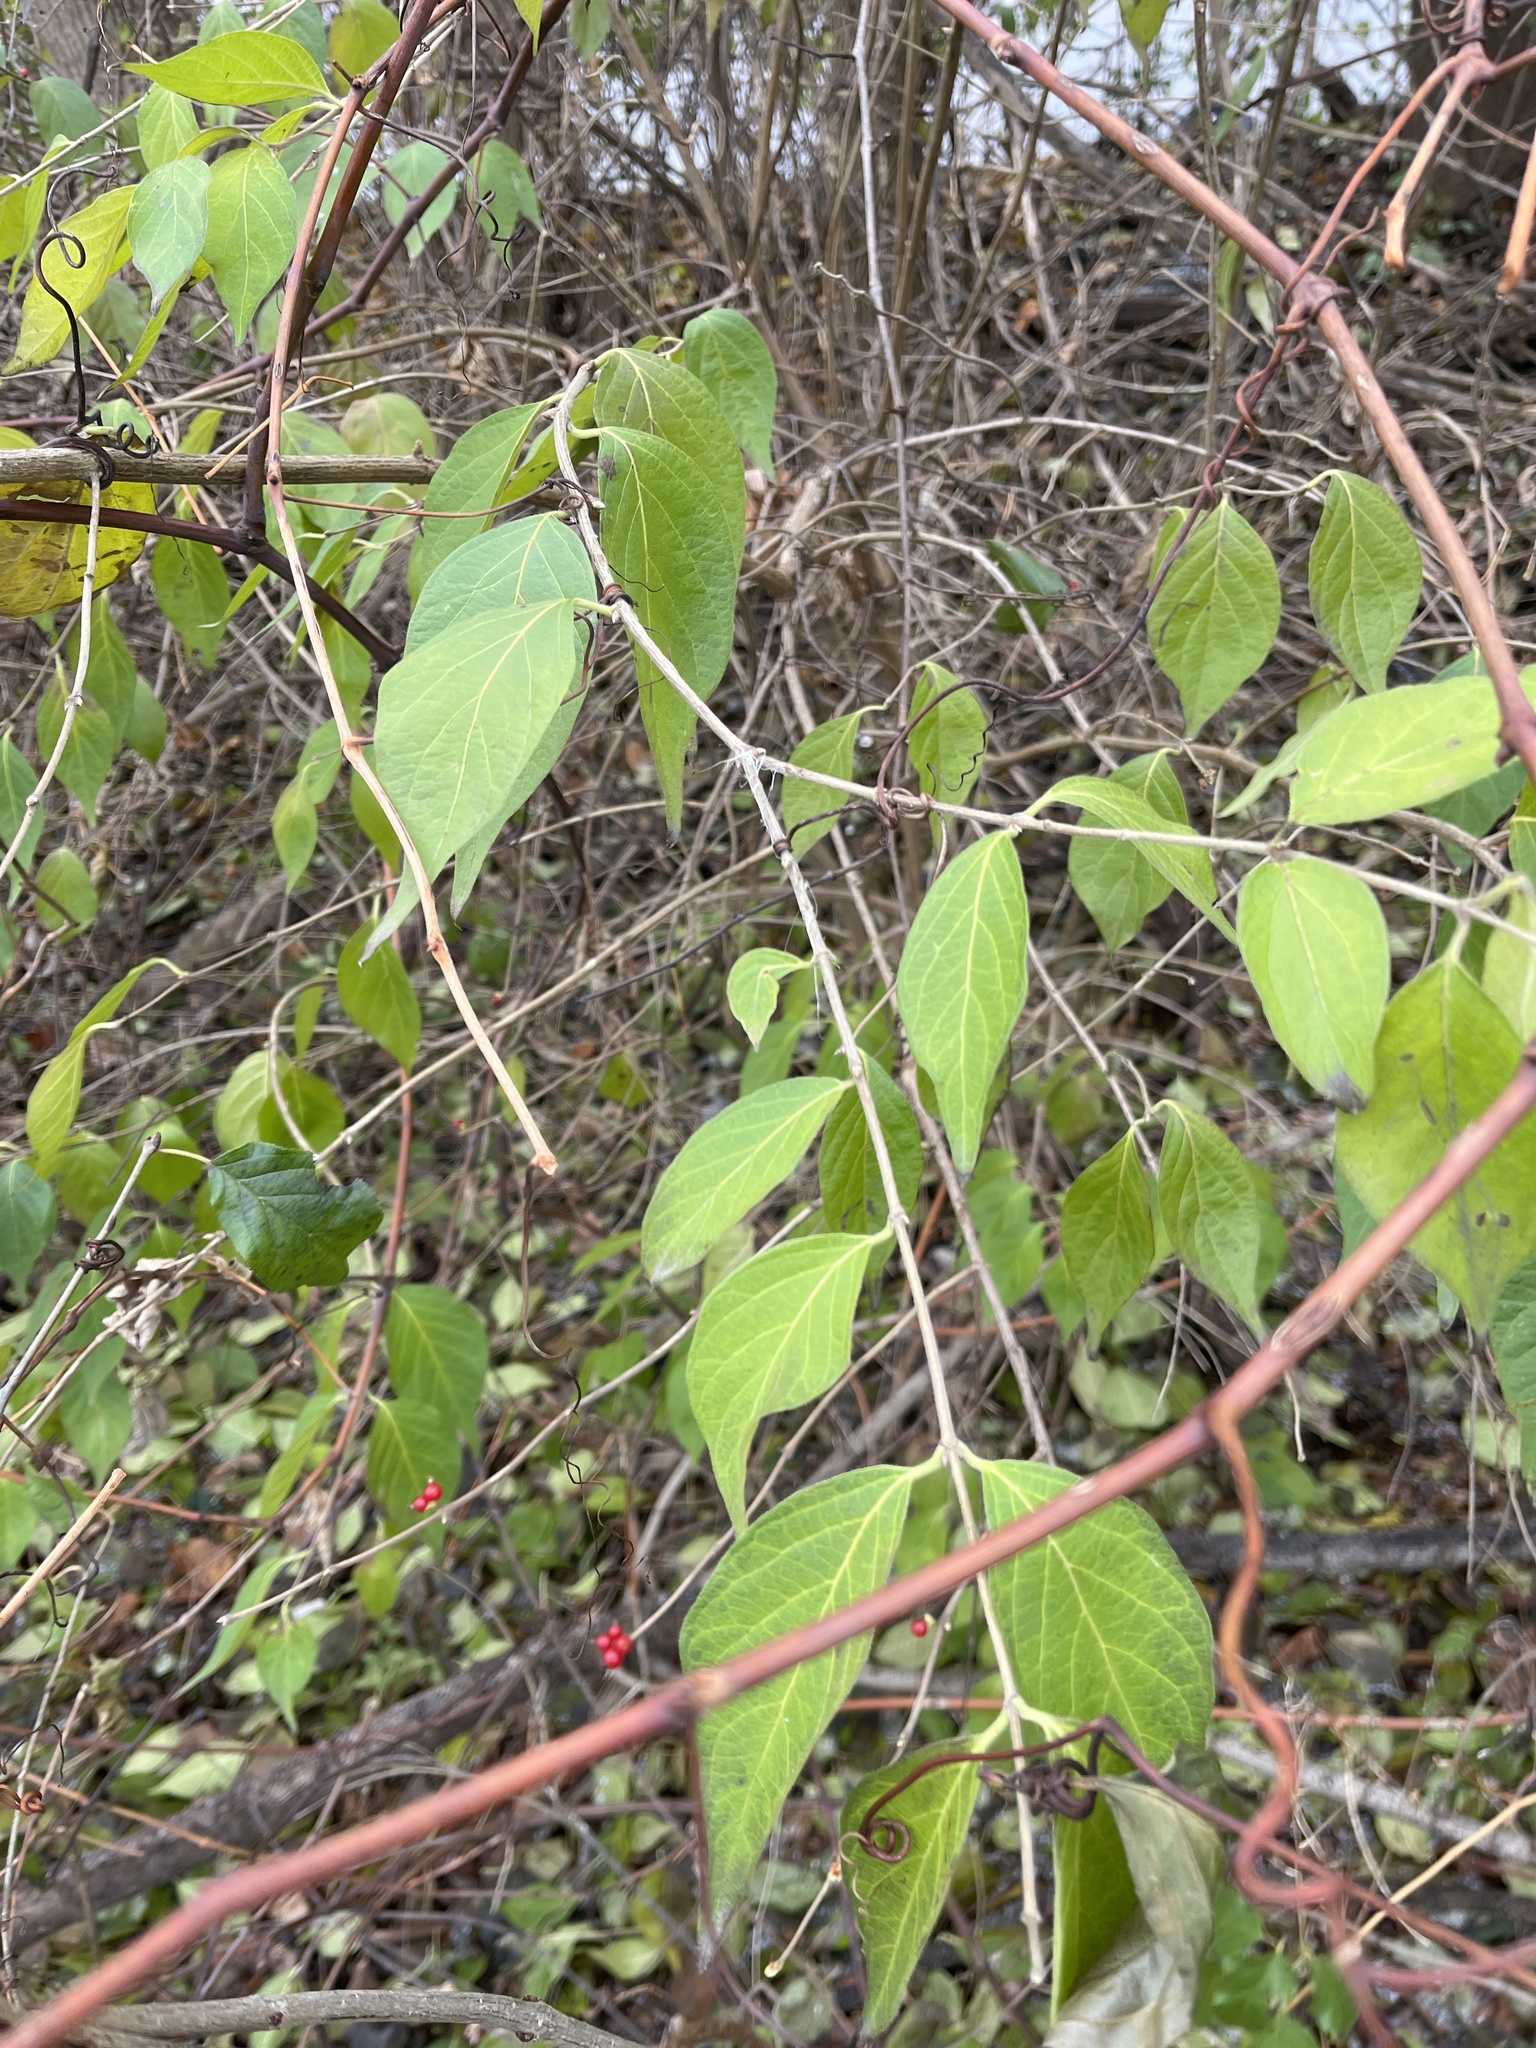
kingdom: Plantae
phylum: Tracheophyta
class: Magnoliopsida
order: Dipsacales
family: Caprifoliaceae
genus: Lonicera
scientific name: Lonicera maackii
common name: Amur honeysuckle
